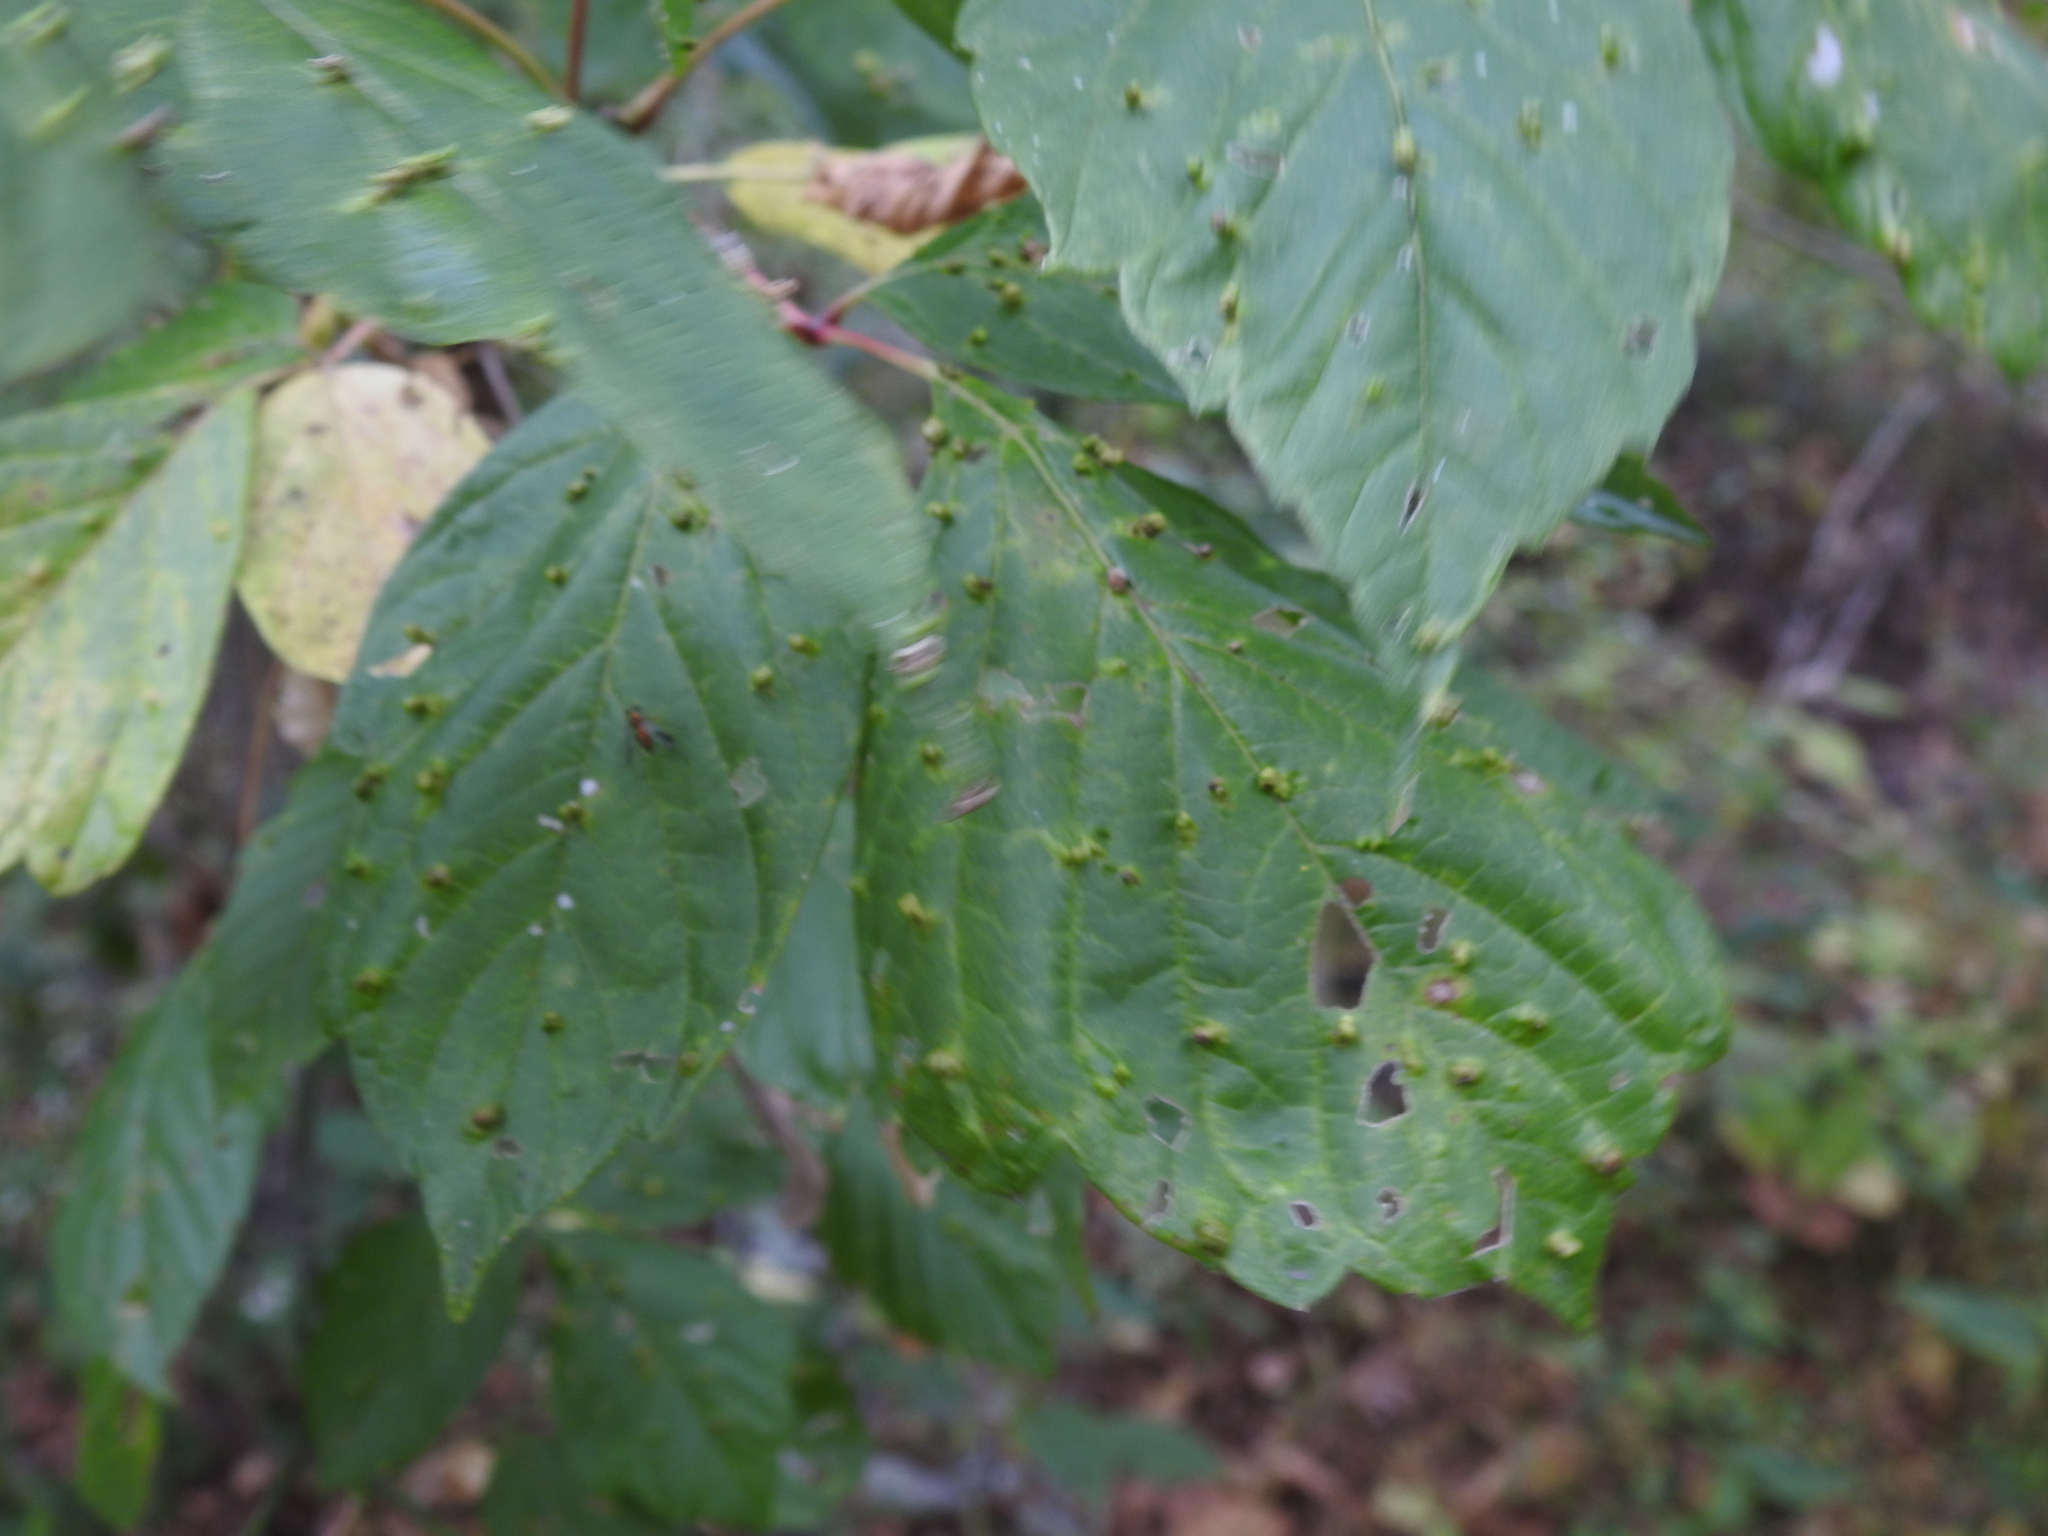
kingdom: Animalia
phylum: Arthropoda
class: Arachnida
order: Trombidiformes
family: Eriophyidae
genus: Aceria
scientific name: Aceria
